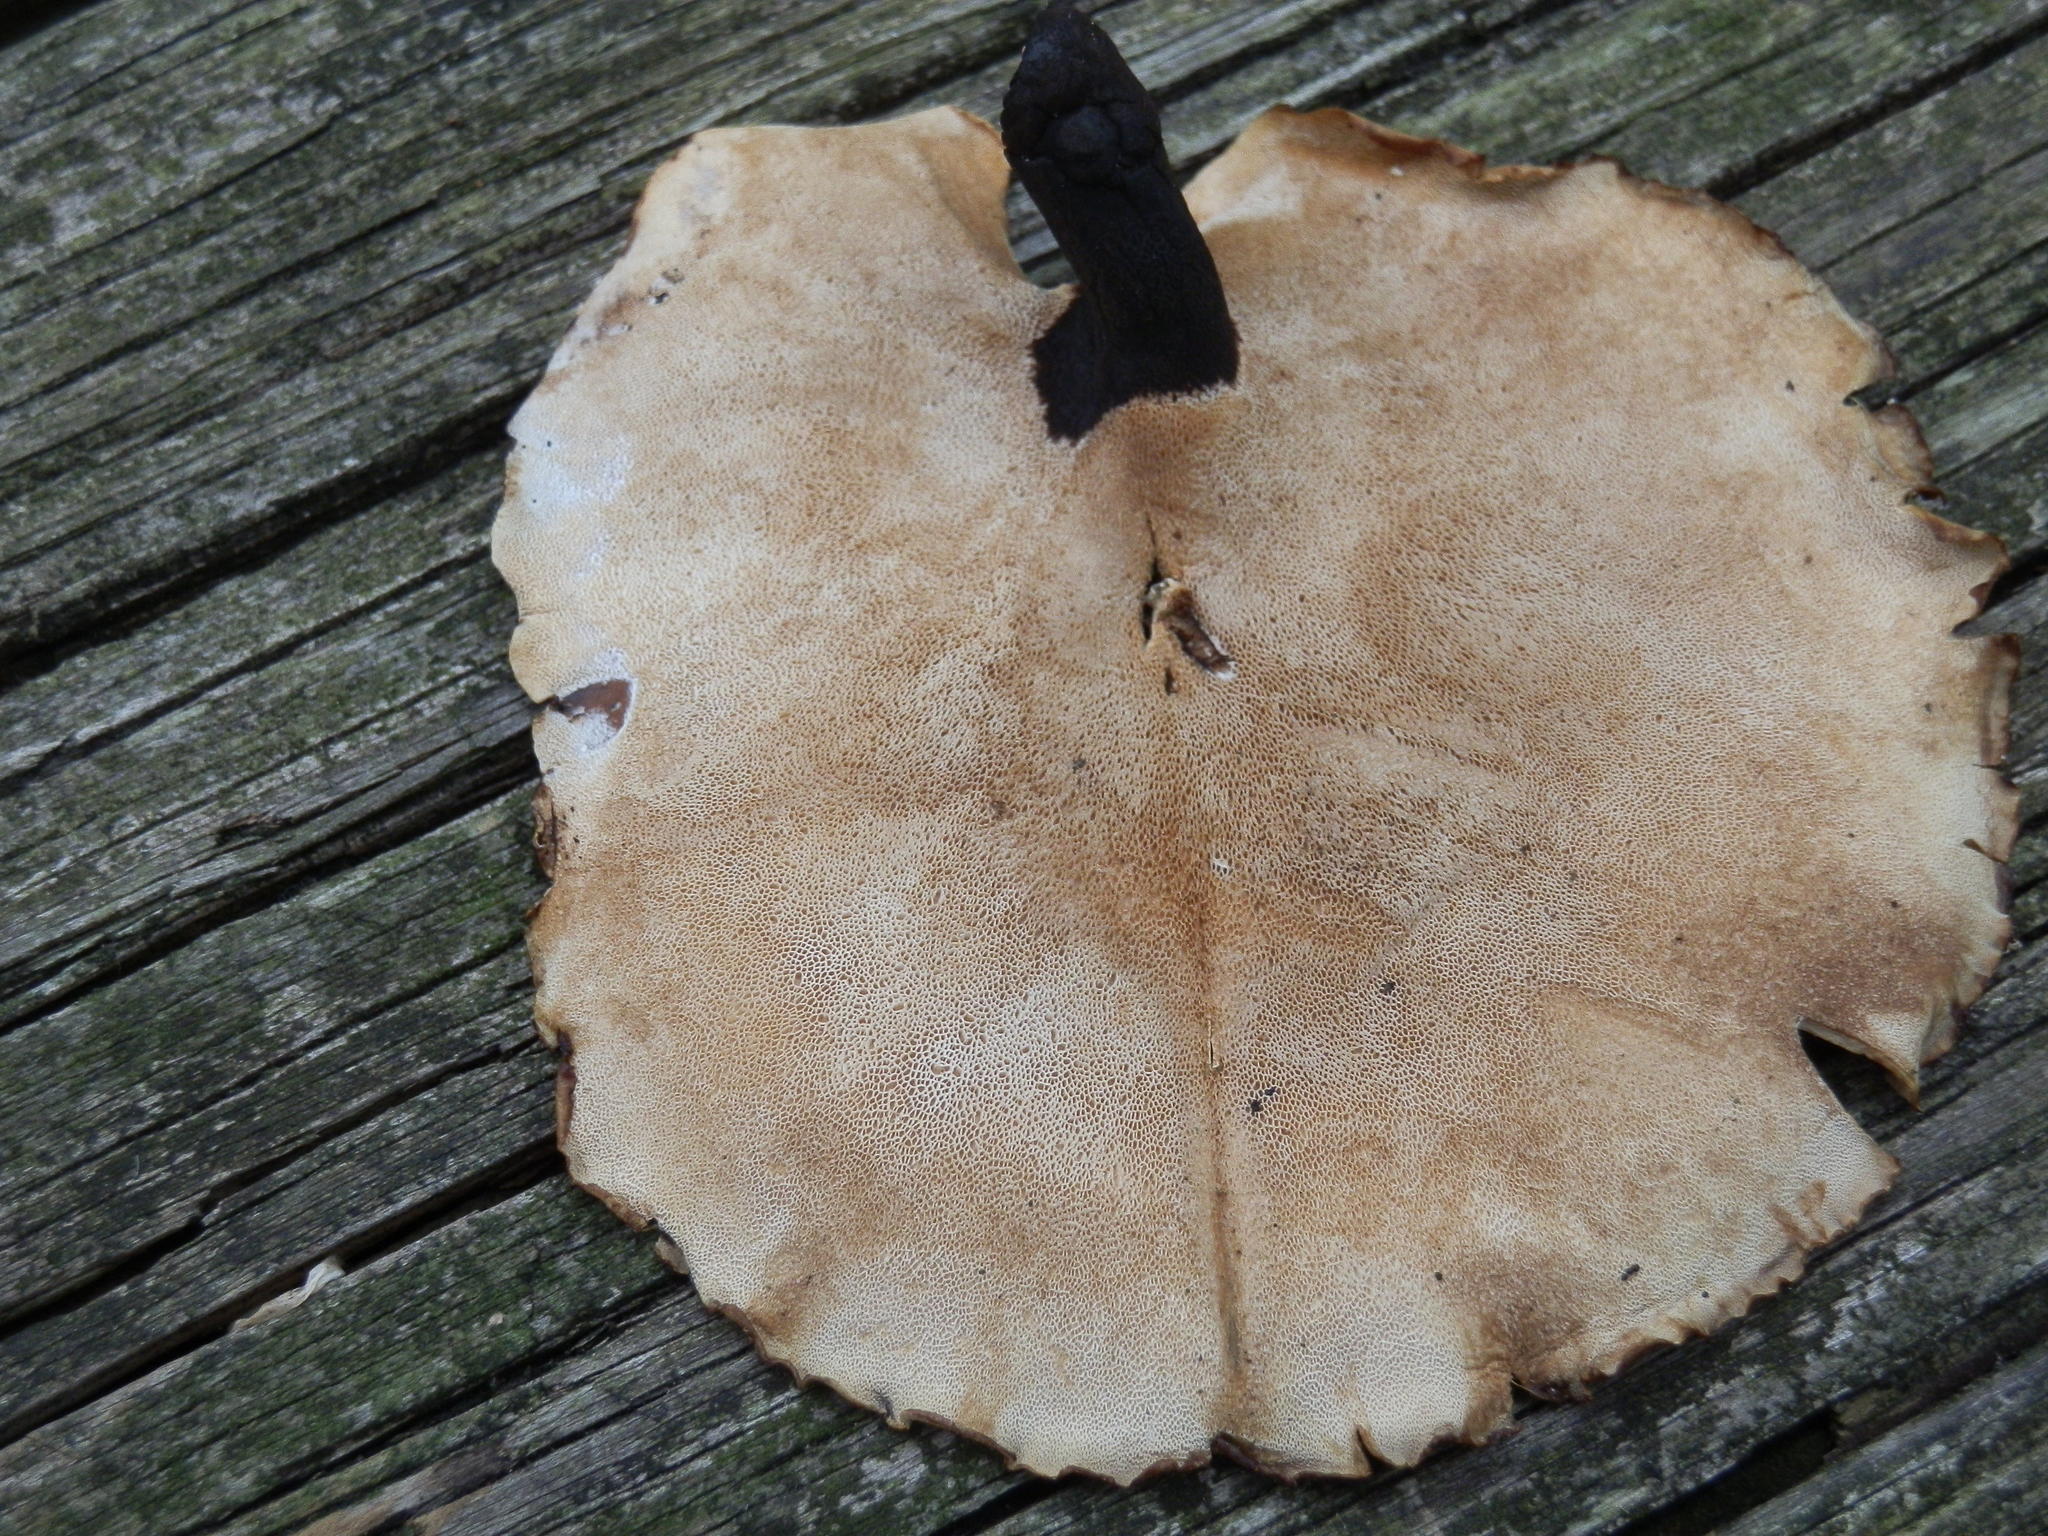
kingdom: Fungi
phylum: Basidiomycota
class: Agaricomycetes
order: Polyporales
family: Polyporaceae
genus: Cerioporus
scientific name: Cerioporus leptocephalus
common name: Blackfoot polypore
